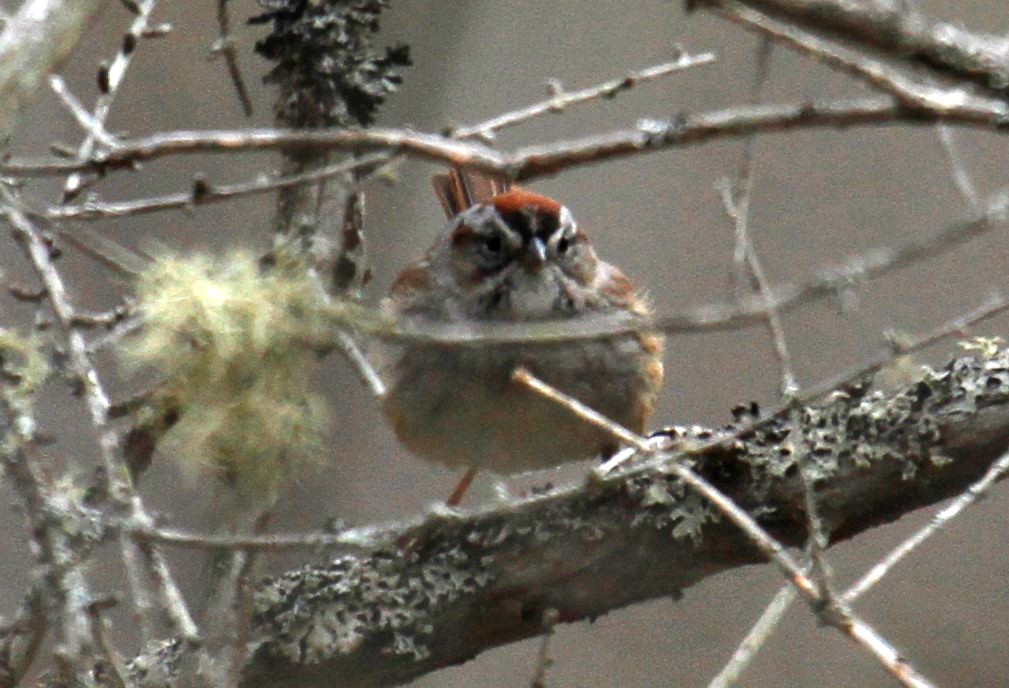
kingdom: Animalia
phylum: Chordata
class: Aves
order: Passeriformes
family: Passerellidae
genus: Melospiza
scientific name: Melospiza georgiana
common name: Swamp sparrow
